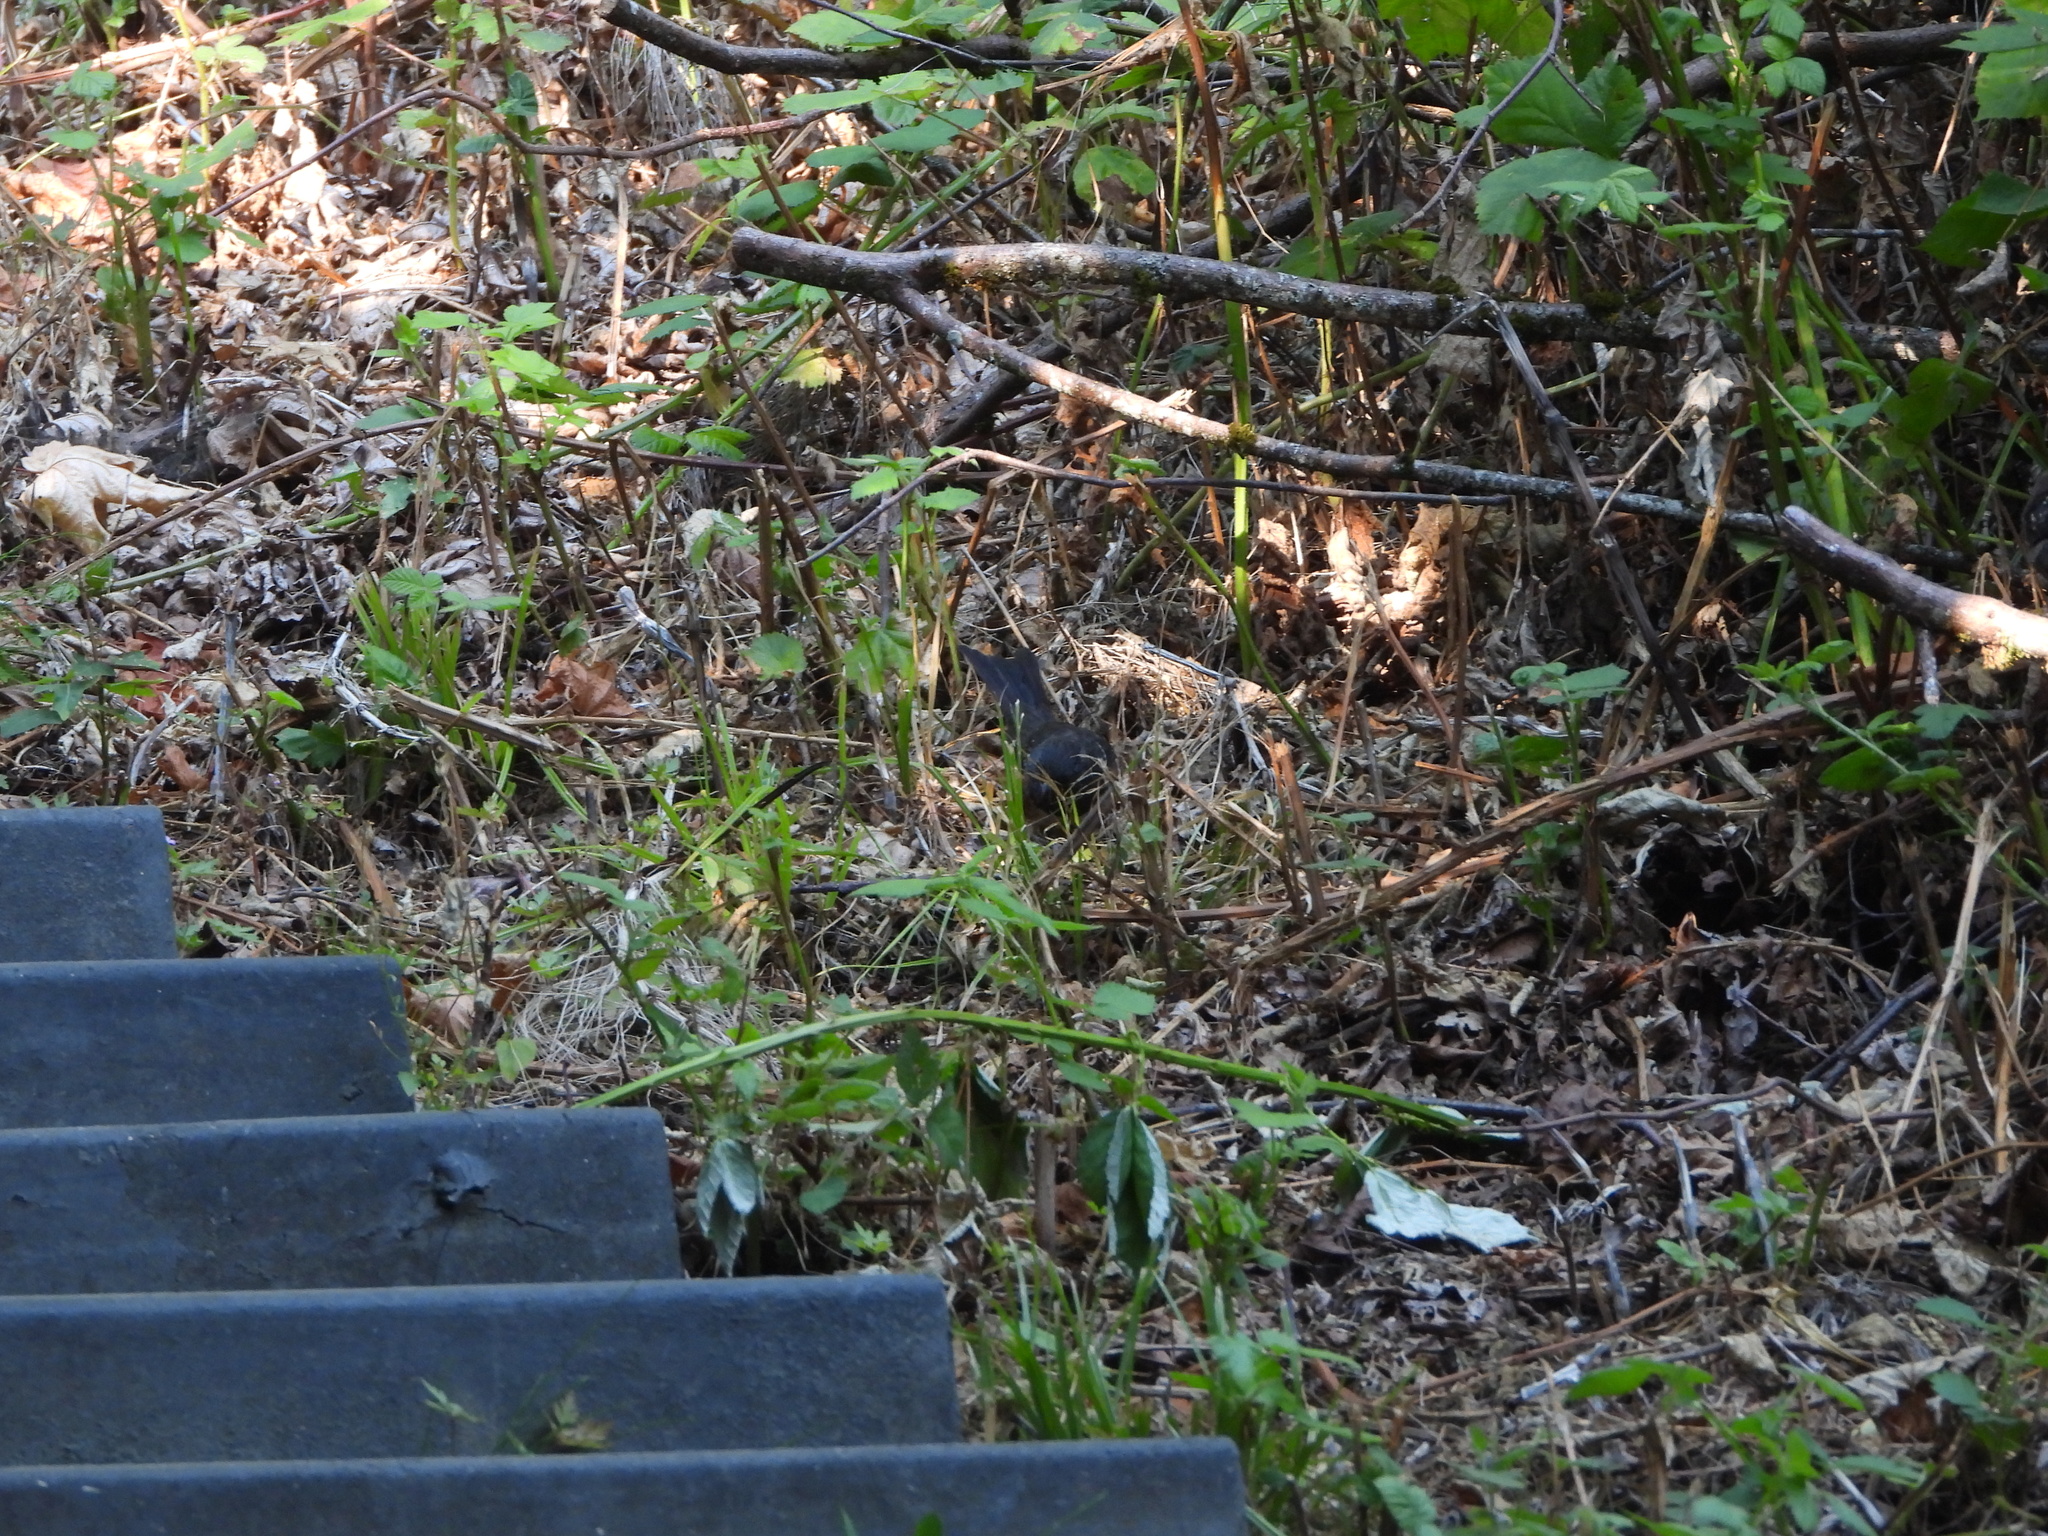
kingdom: Animalia
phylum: Chordata
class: Aves
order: Passeriformes
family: Passerellidae
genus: Pipilo
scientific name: Pipilo maculatus
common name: Spotted towhee
